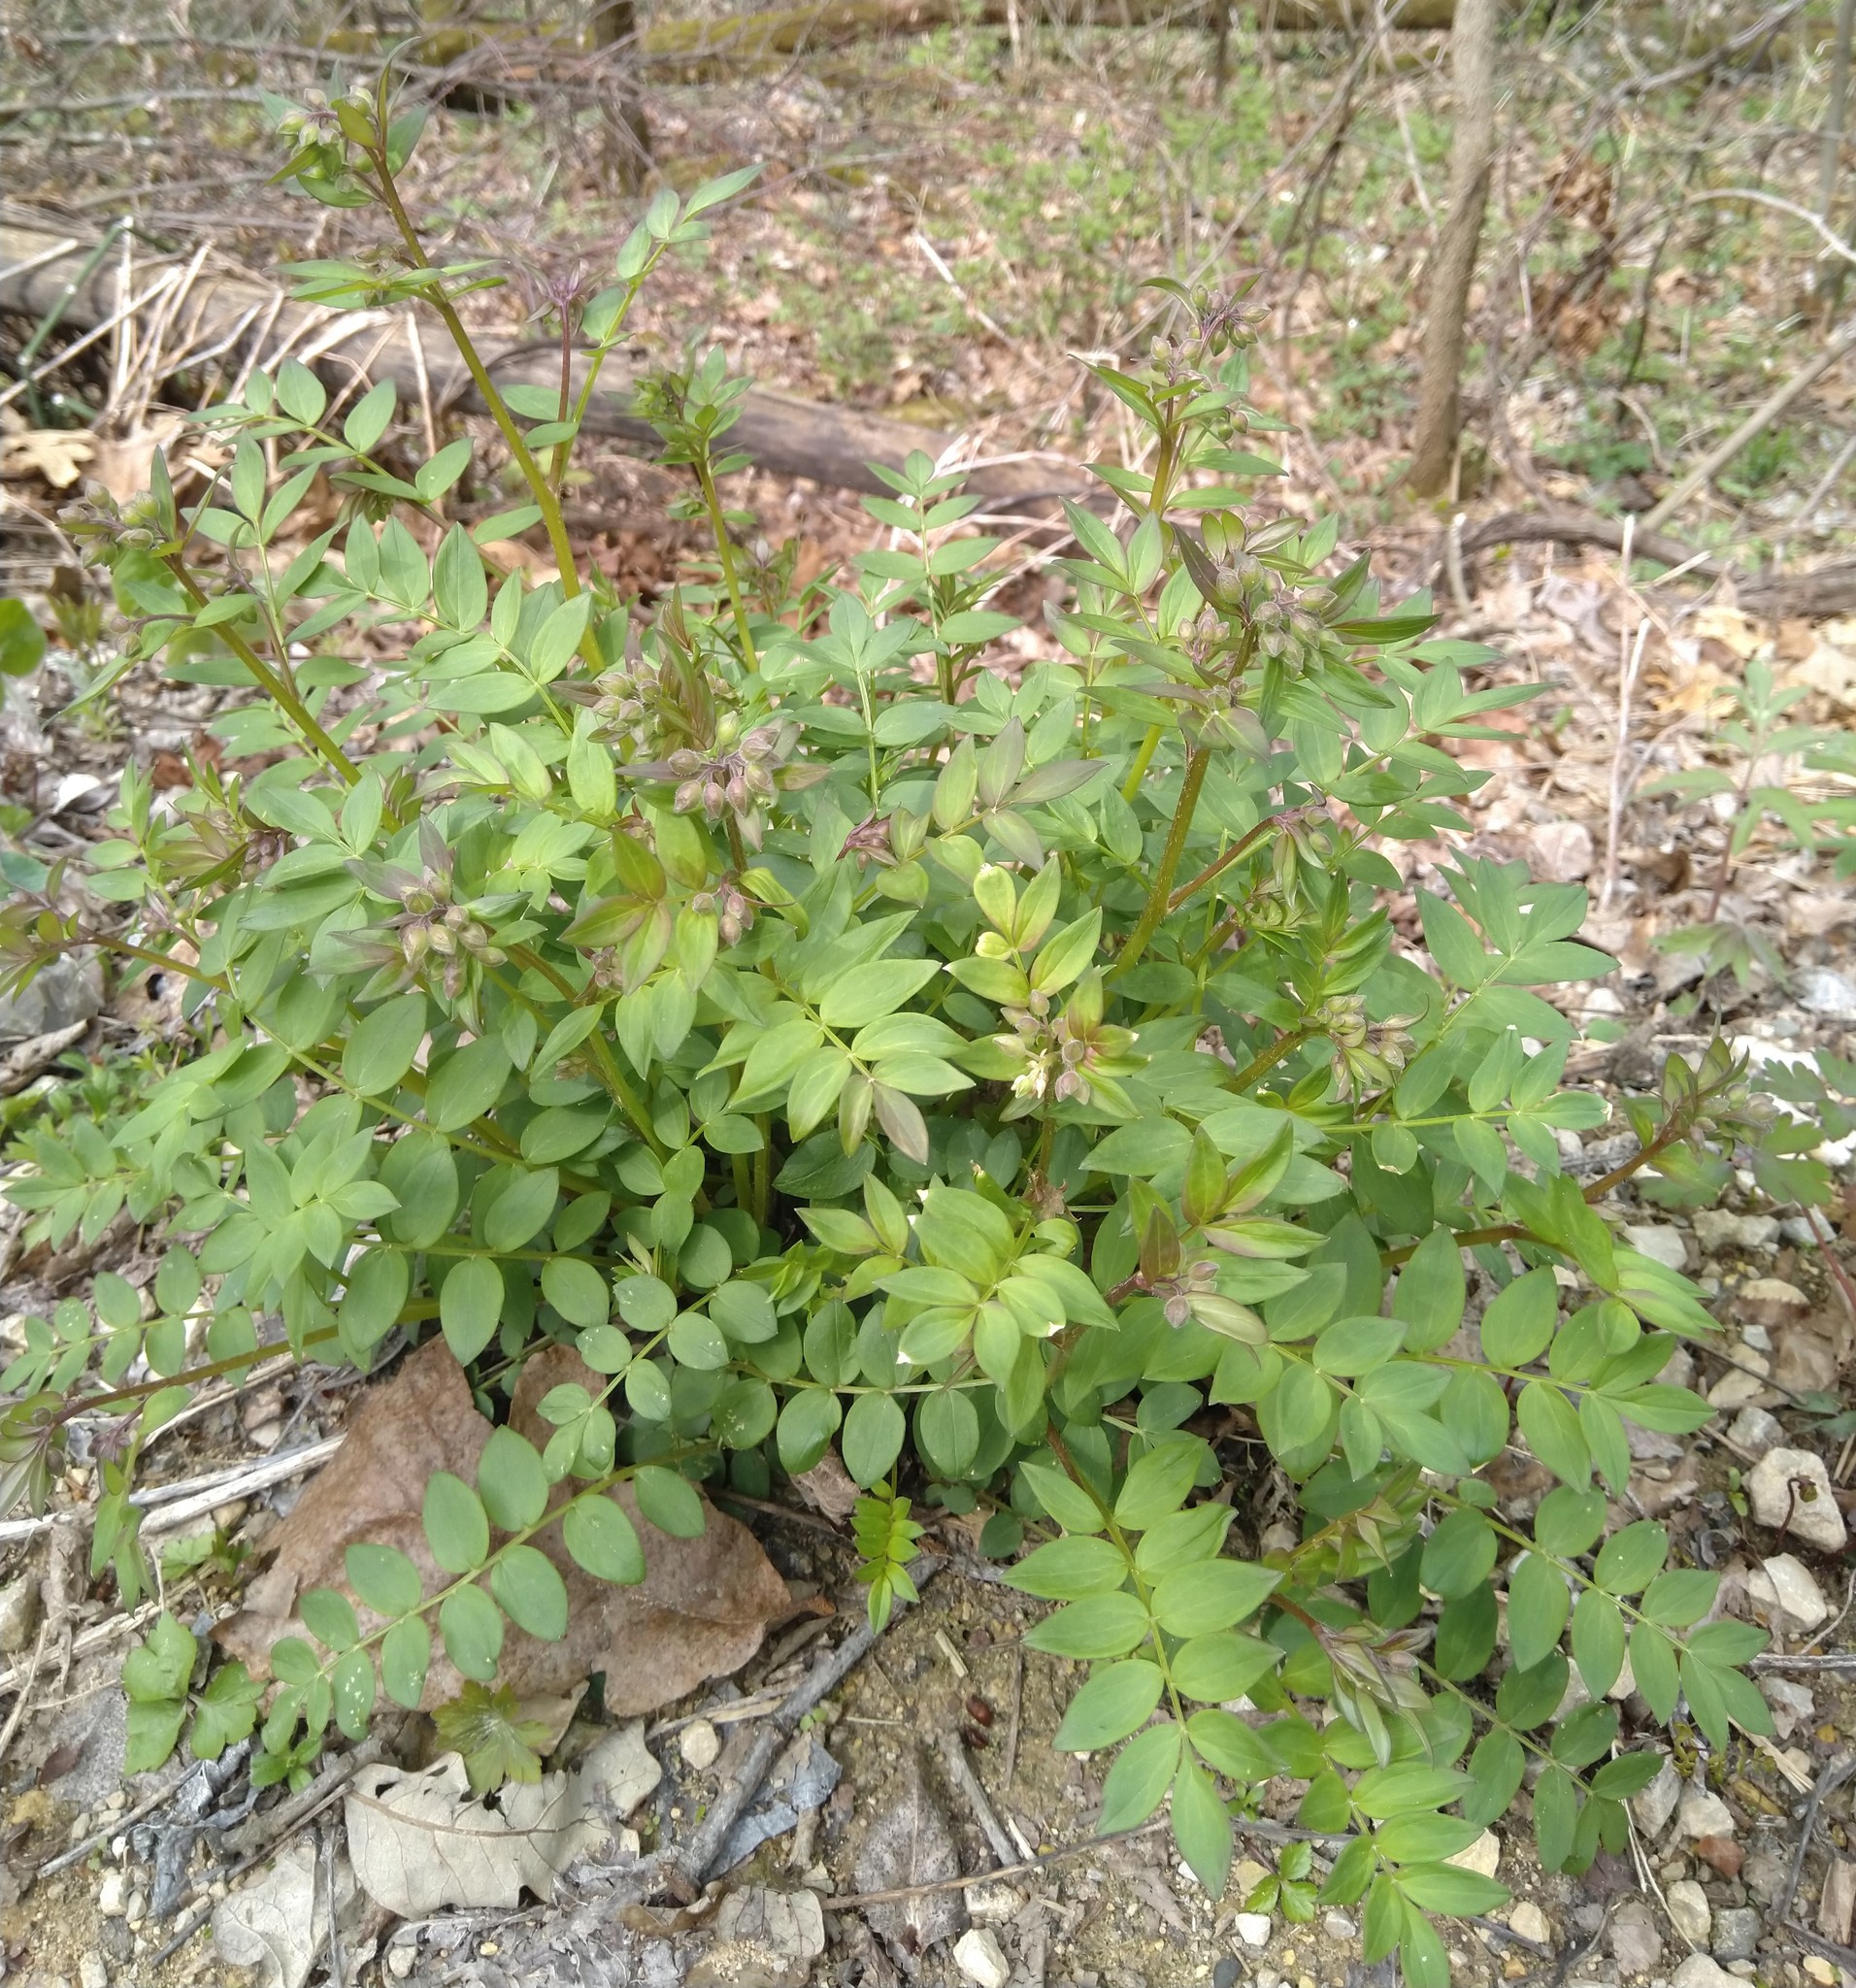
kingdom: Plantae
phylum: Tracheophyta
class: Magnoliopsida
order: Ericales
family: Polemoniaceae
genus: Polemonium
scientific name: Polemonium reptans
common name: Creeping jacob's-ladder
